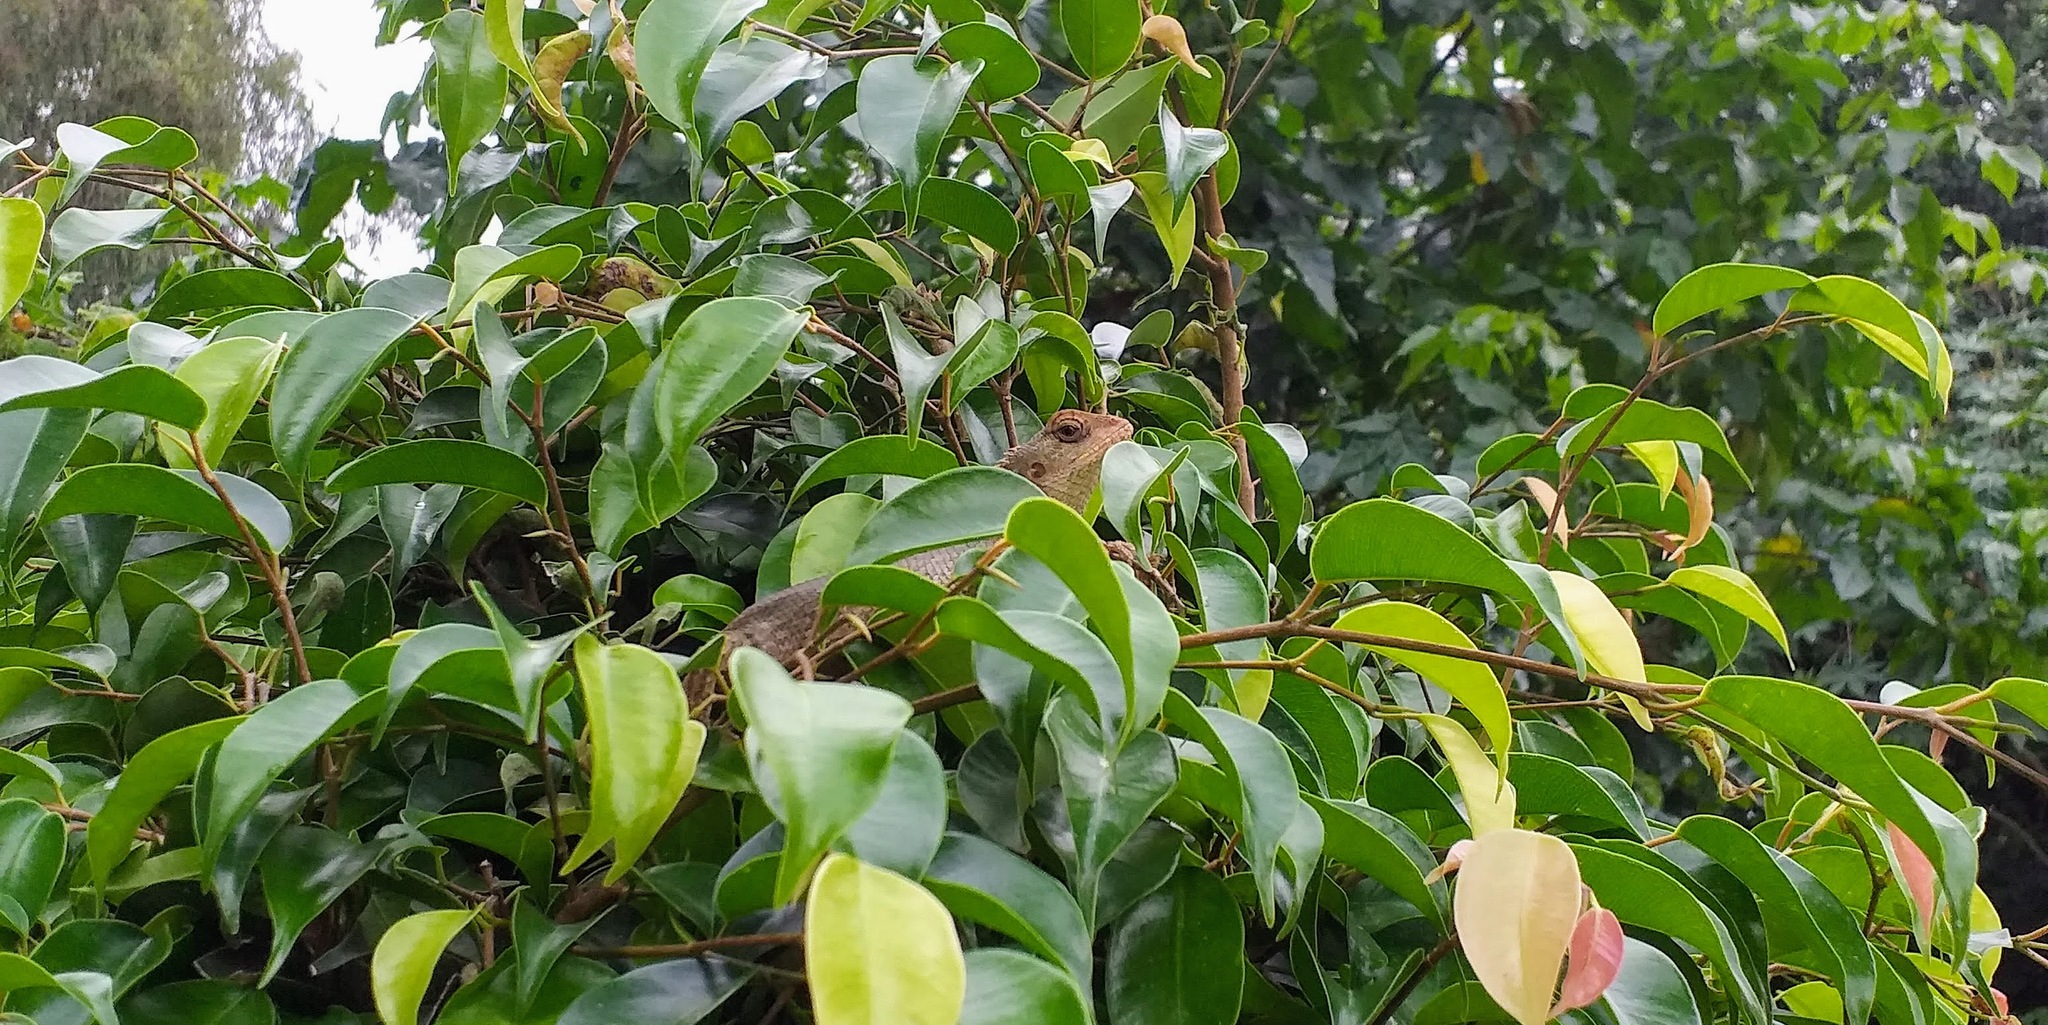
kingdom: Animalia
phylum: Chordata
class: Squamata
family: Agamidae
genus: Calotes
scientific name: Calotes versicolor
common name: Oriental garden lizard
